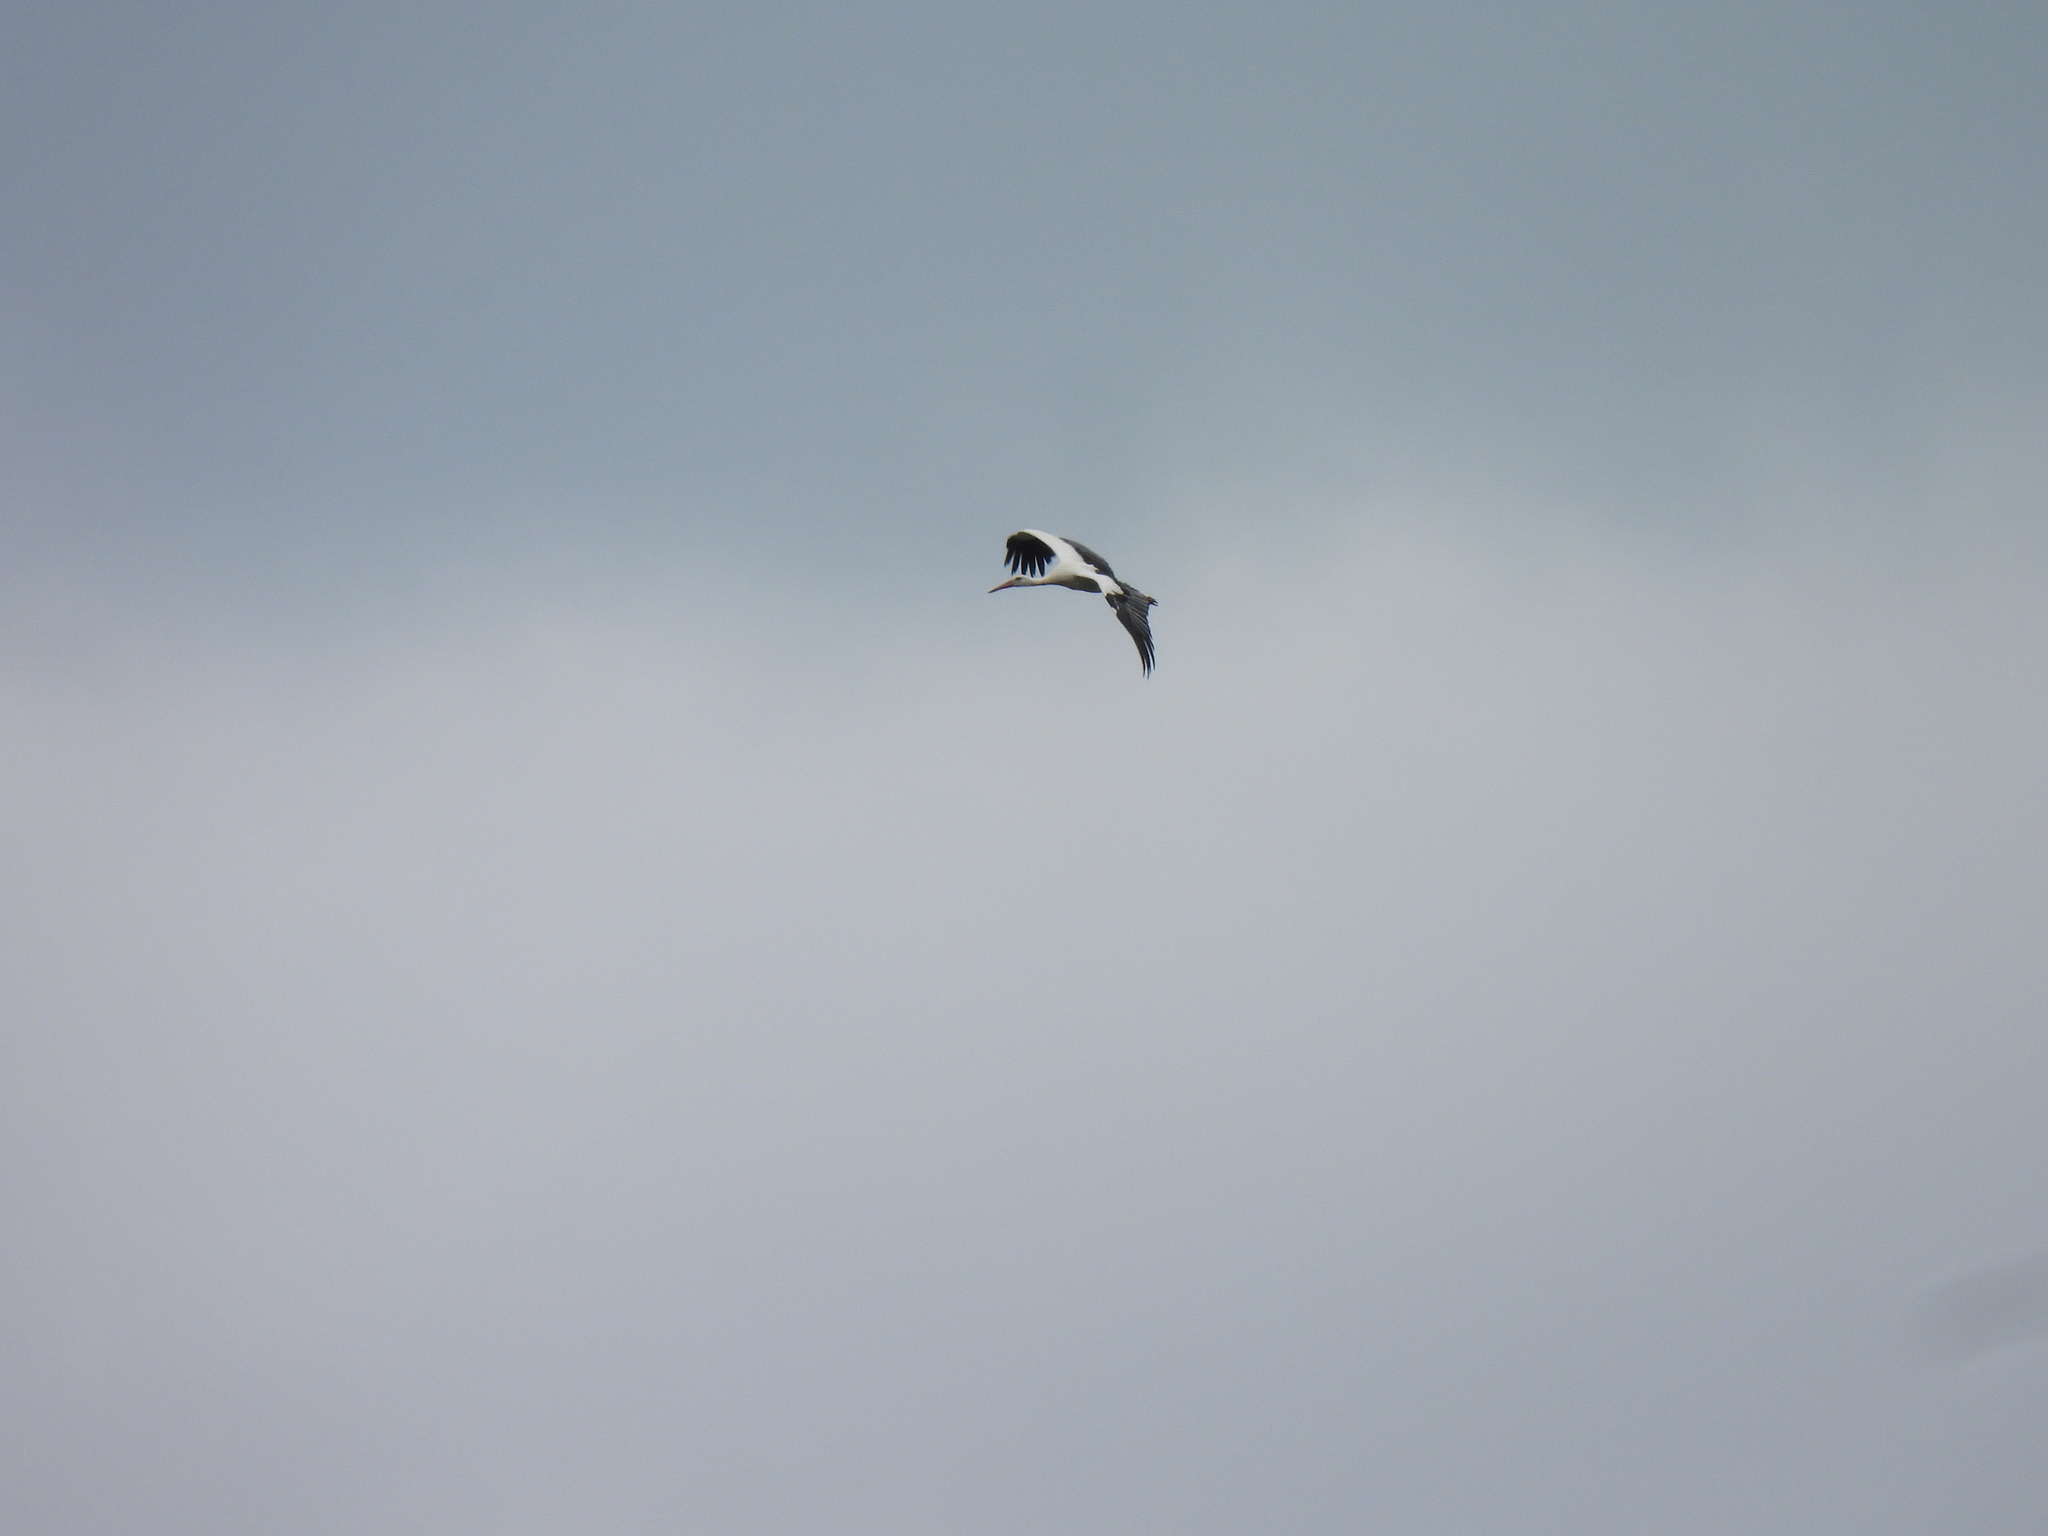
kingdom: Animalia
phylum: Chordata
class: Aves
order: Ciconiiformes
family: Ciconiidae
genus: Ciconia
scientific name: Ciconia ciconia
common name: White stork
